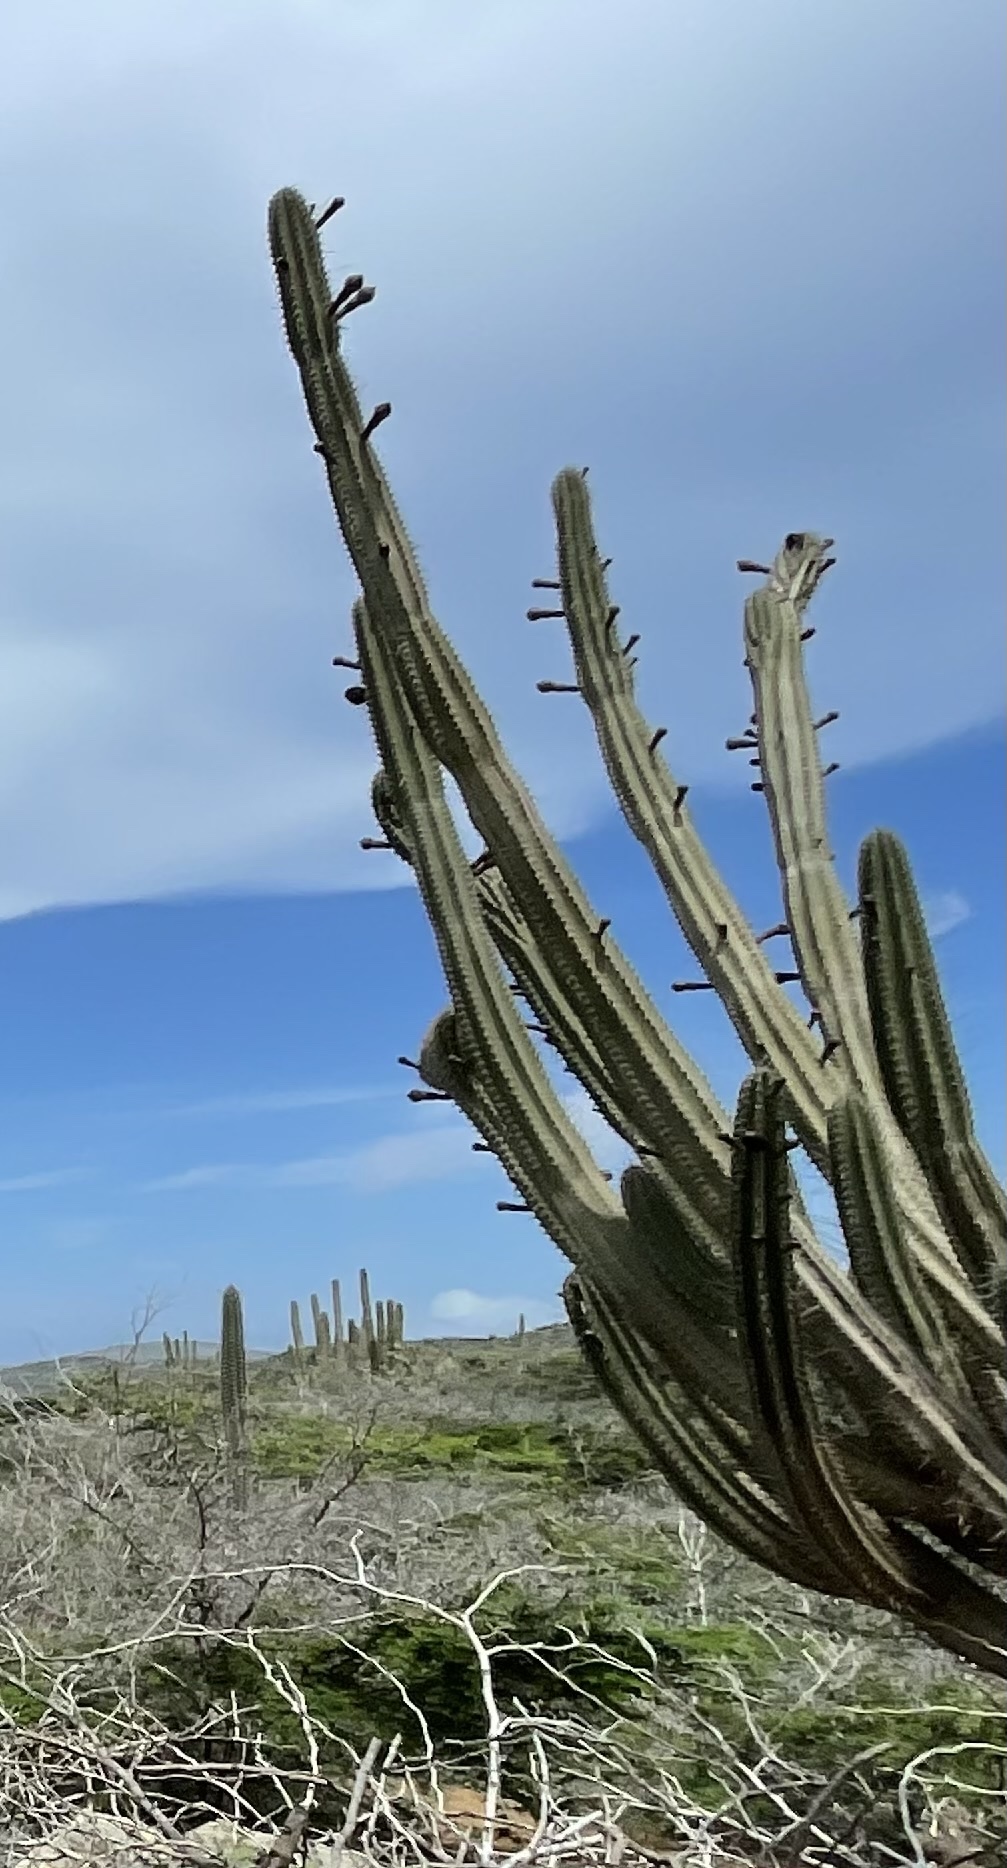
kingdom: Plantae
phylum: Tracheophyta
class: Magnoliopsida
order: Caryophyllales
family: Cactaceae
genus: Cereus
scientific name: Cereus repandus
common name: Sweetpotato cactus
